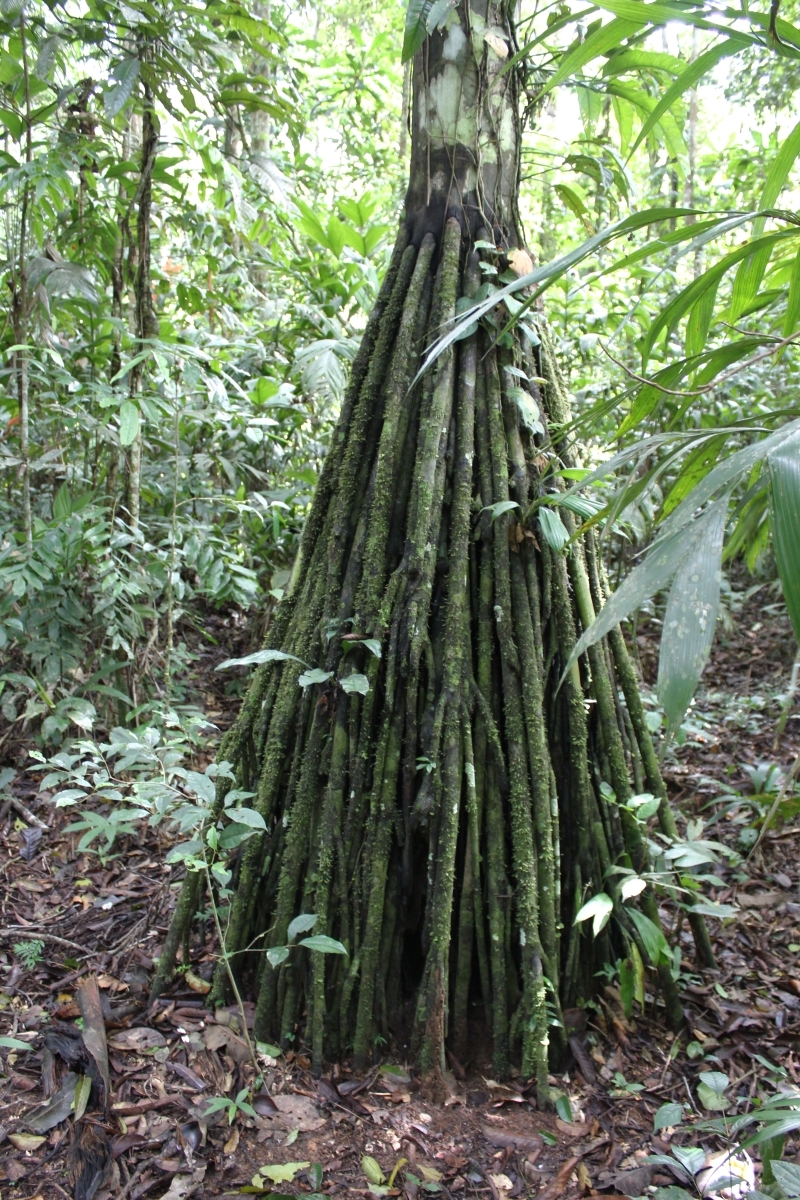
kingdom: Plantae
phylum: Tracheophyta
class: Liliopsida
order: Arecales
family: Arecaceae
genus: Socratea
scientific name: Socratea exorrhiza
